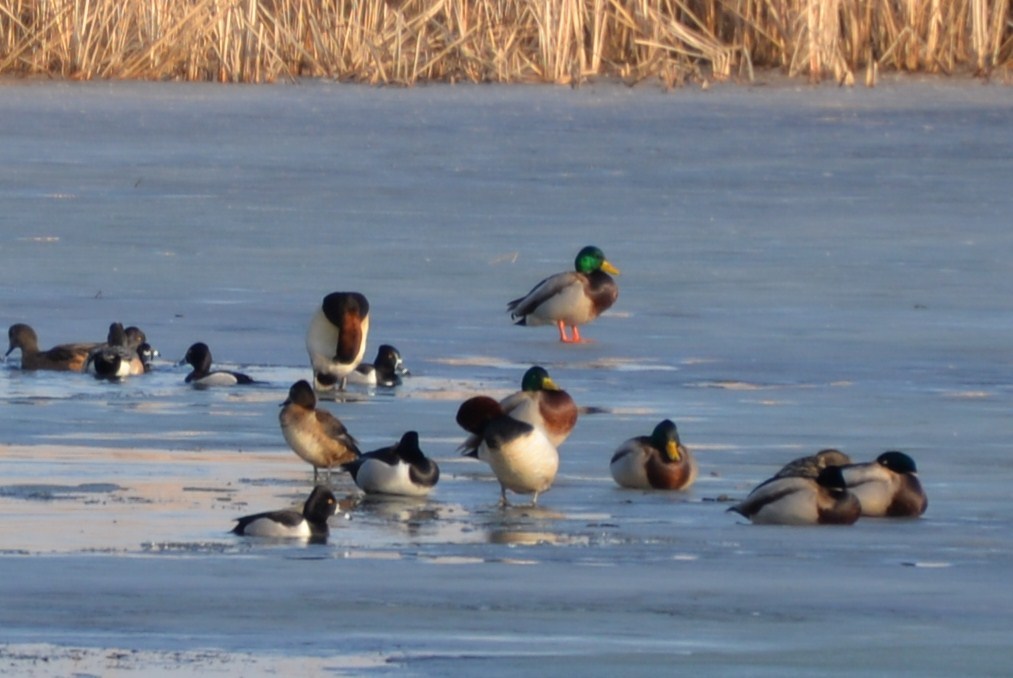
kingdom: Animalia
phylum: Chordata
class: Aves
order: Anseriformes
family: Anatidae
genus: Anas
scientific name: Anas platyrhynchos
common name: Mallard
